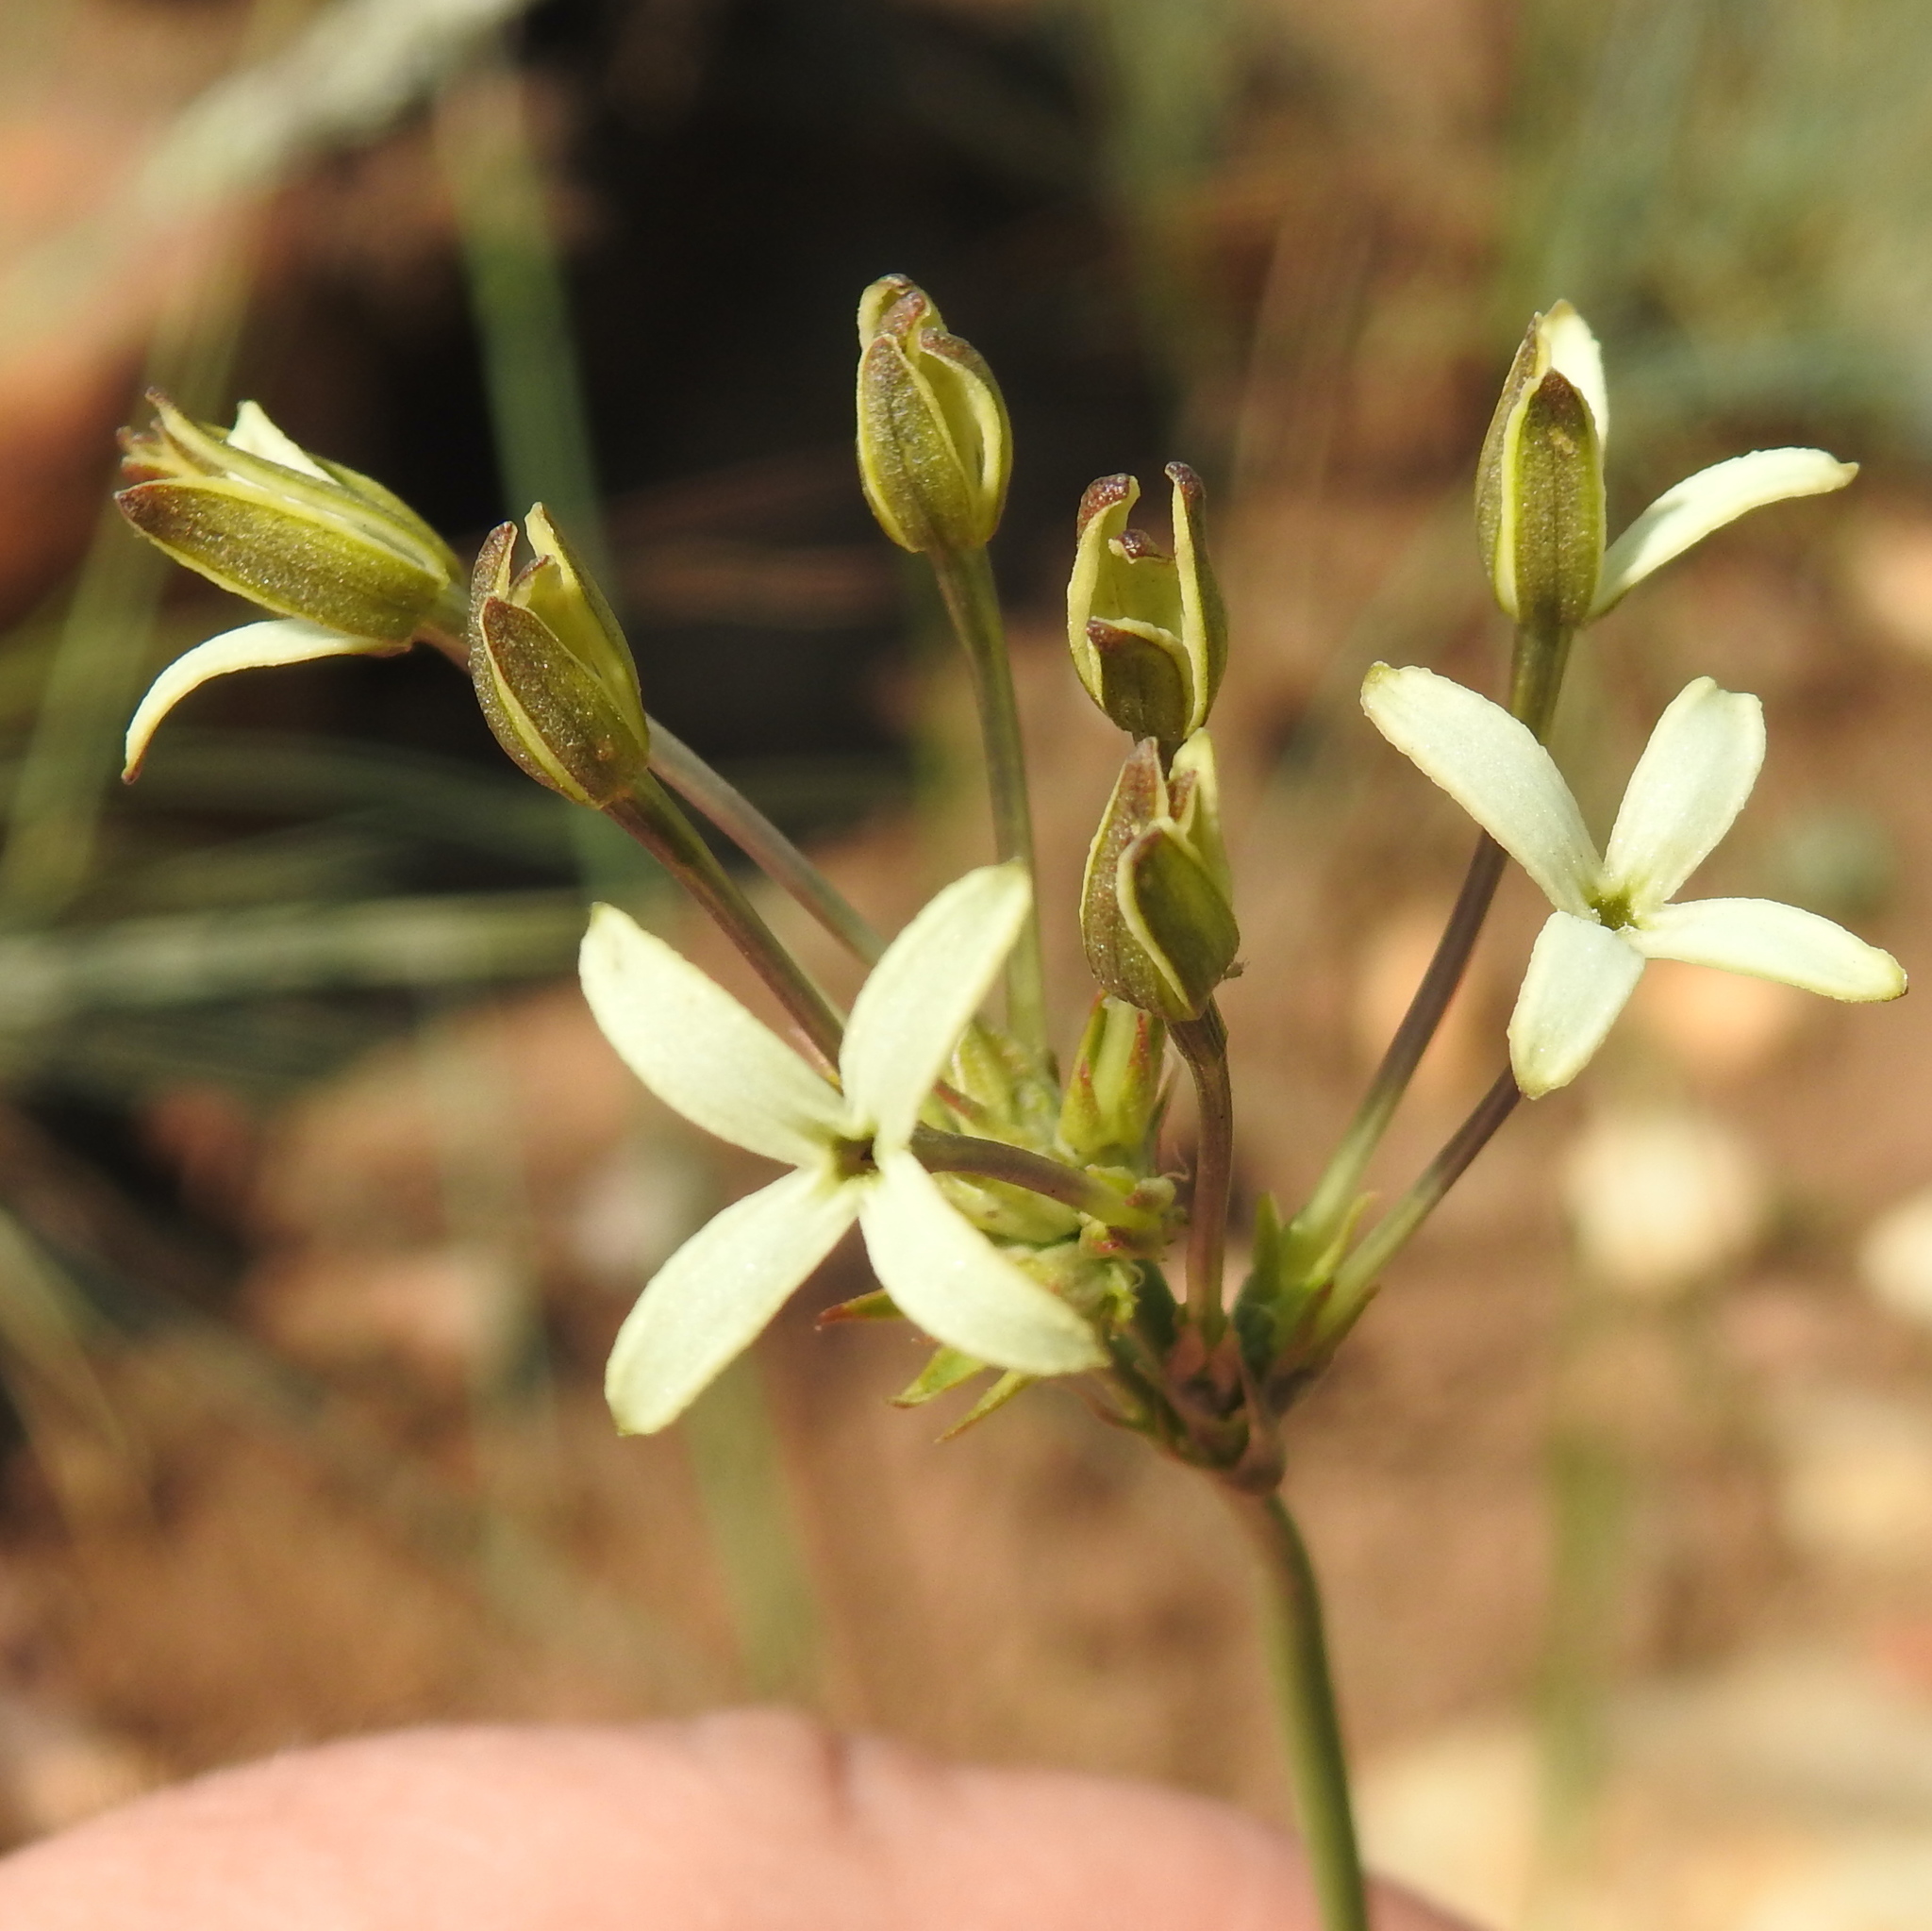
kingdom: Plantae
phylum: Tracheophyta
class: Magnoliopsida
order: Gentianales
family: Rubiaceae
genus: Kohautia
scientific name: Kohautia amatymbica
